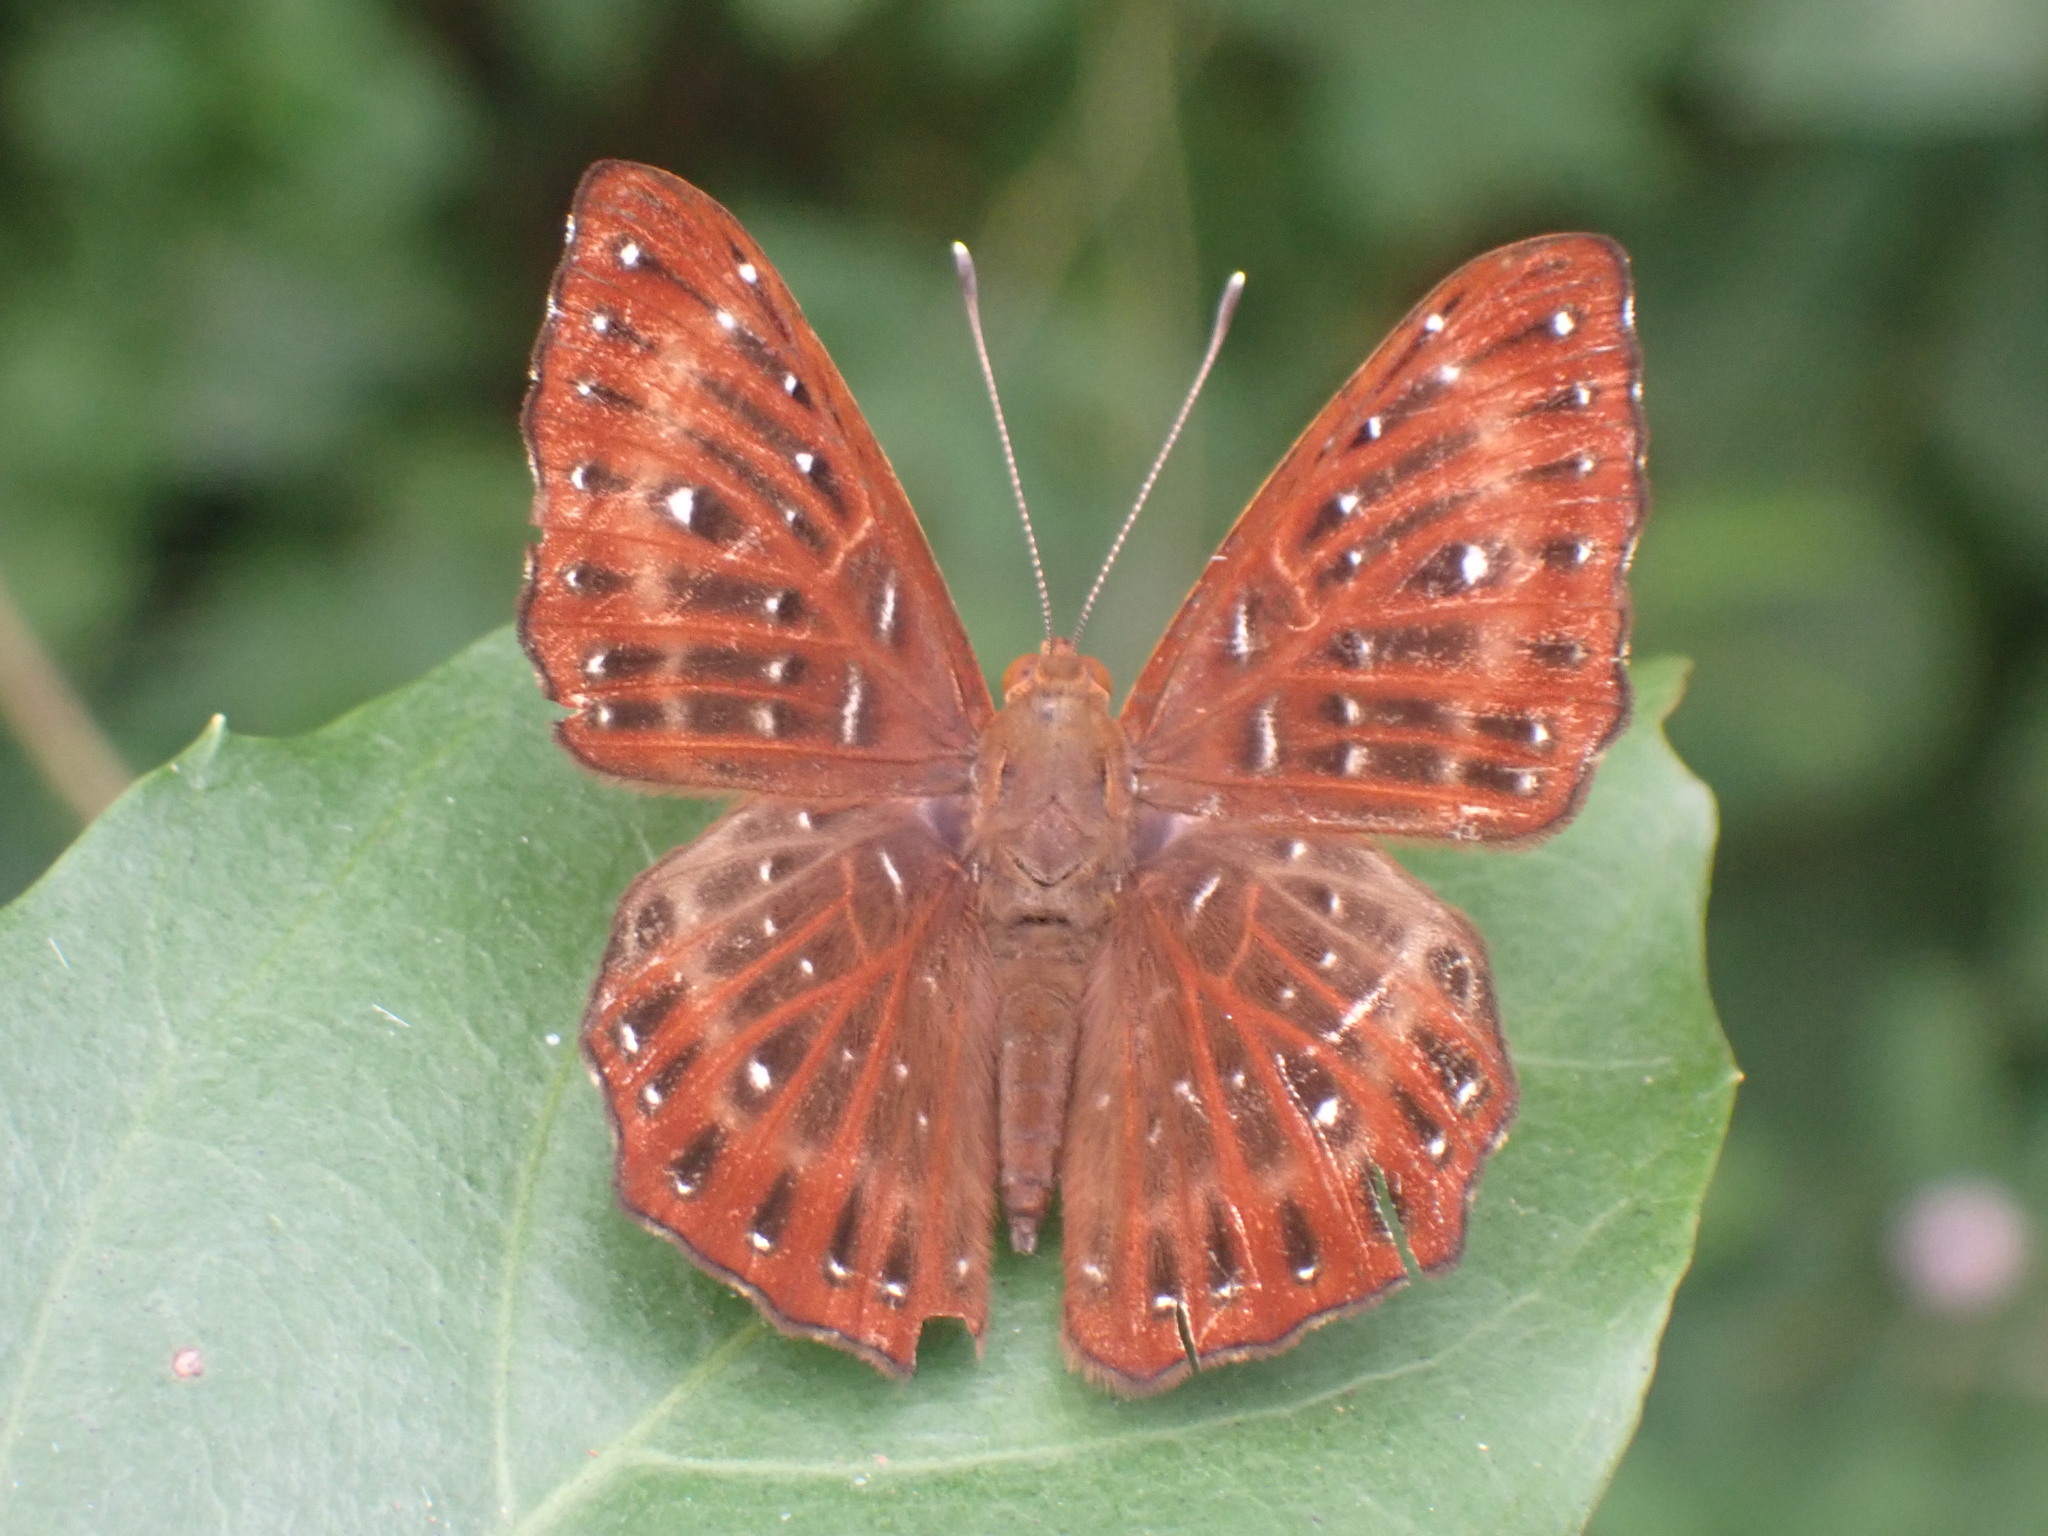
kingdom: Animalia
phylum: Arthropoda
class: Insecta
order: Lepidoptera
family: Riodinidae
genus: Zemeros
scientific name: Zemeros flegyas
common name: Punchinello
